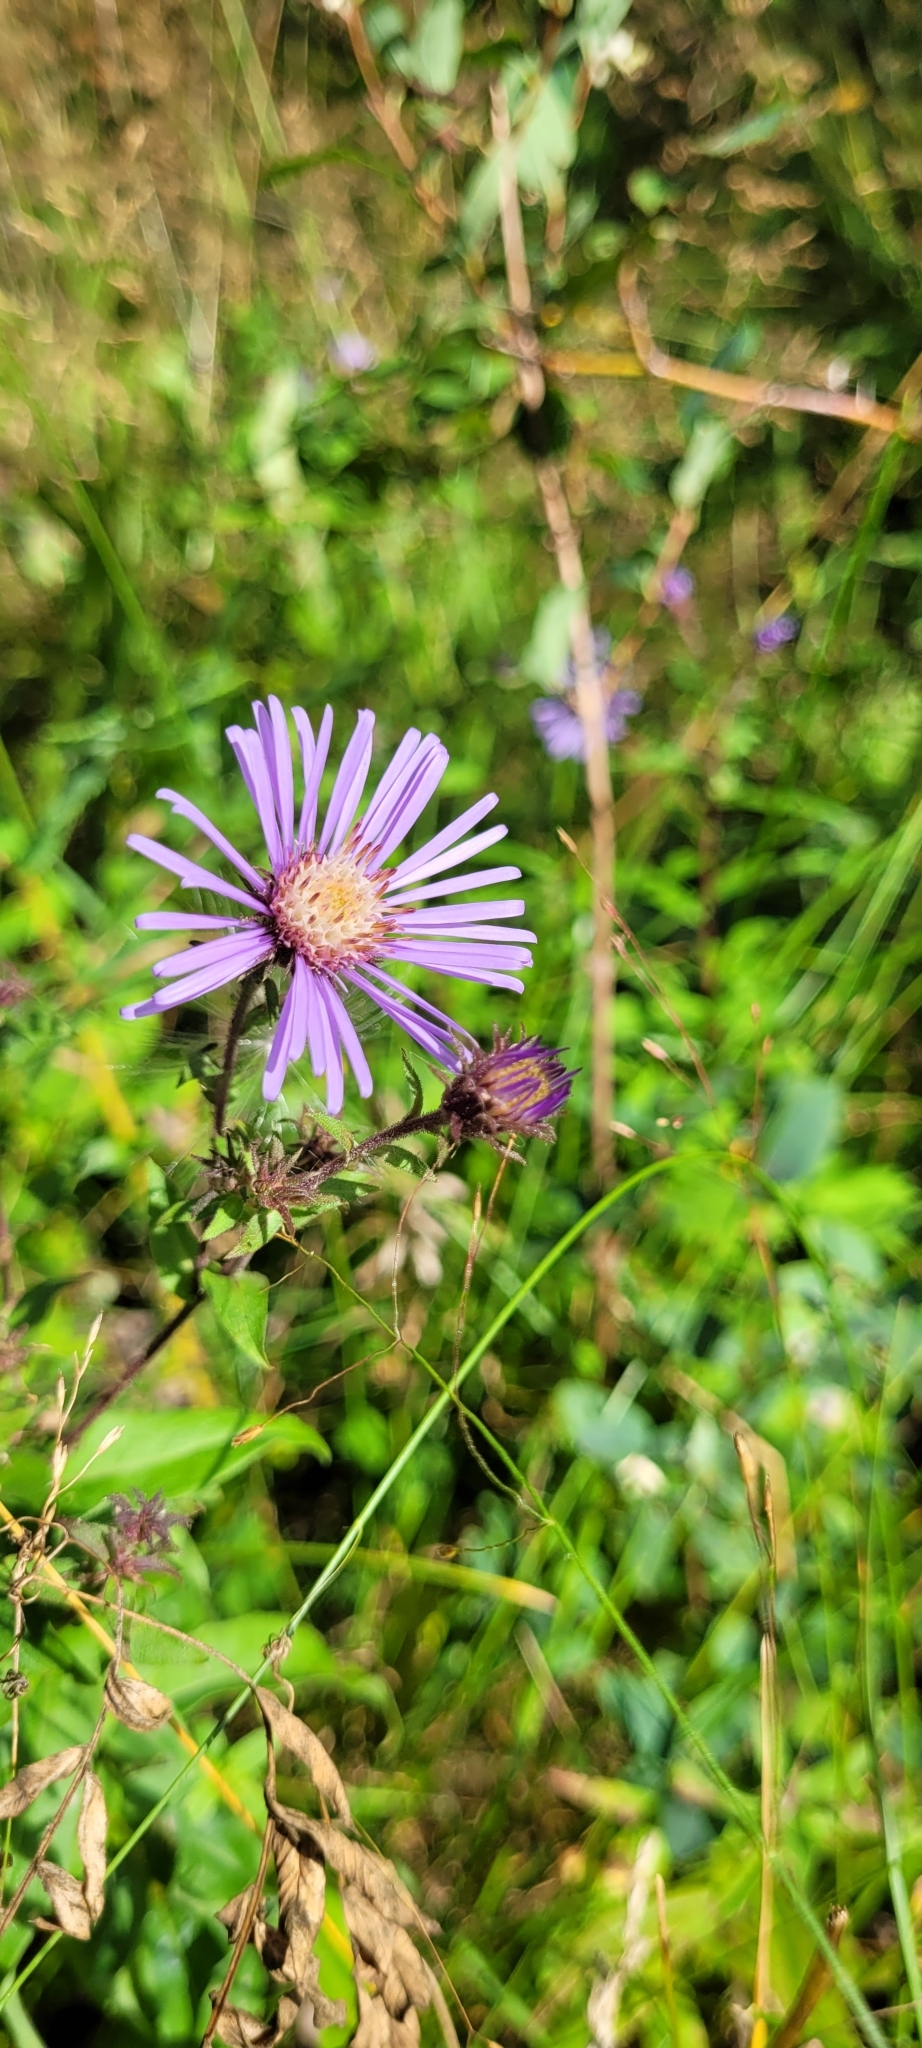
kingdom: Plantae
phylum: Tracheophyta
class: Magnoliopsida
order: Asterales
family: Asteraceae
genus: Canadanthus
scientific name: Canadanthus modestus
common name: Great northern aster
